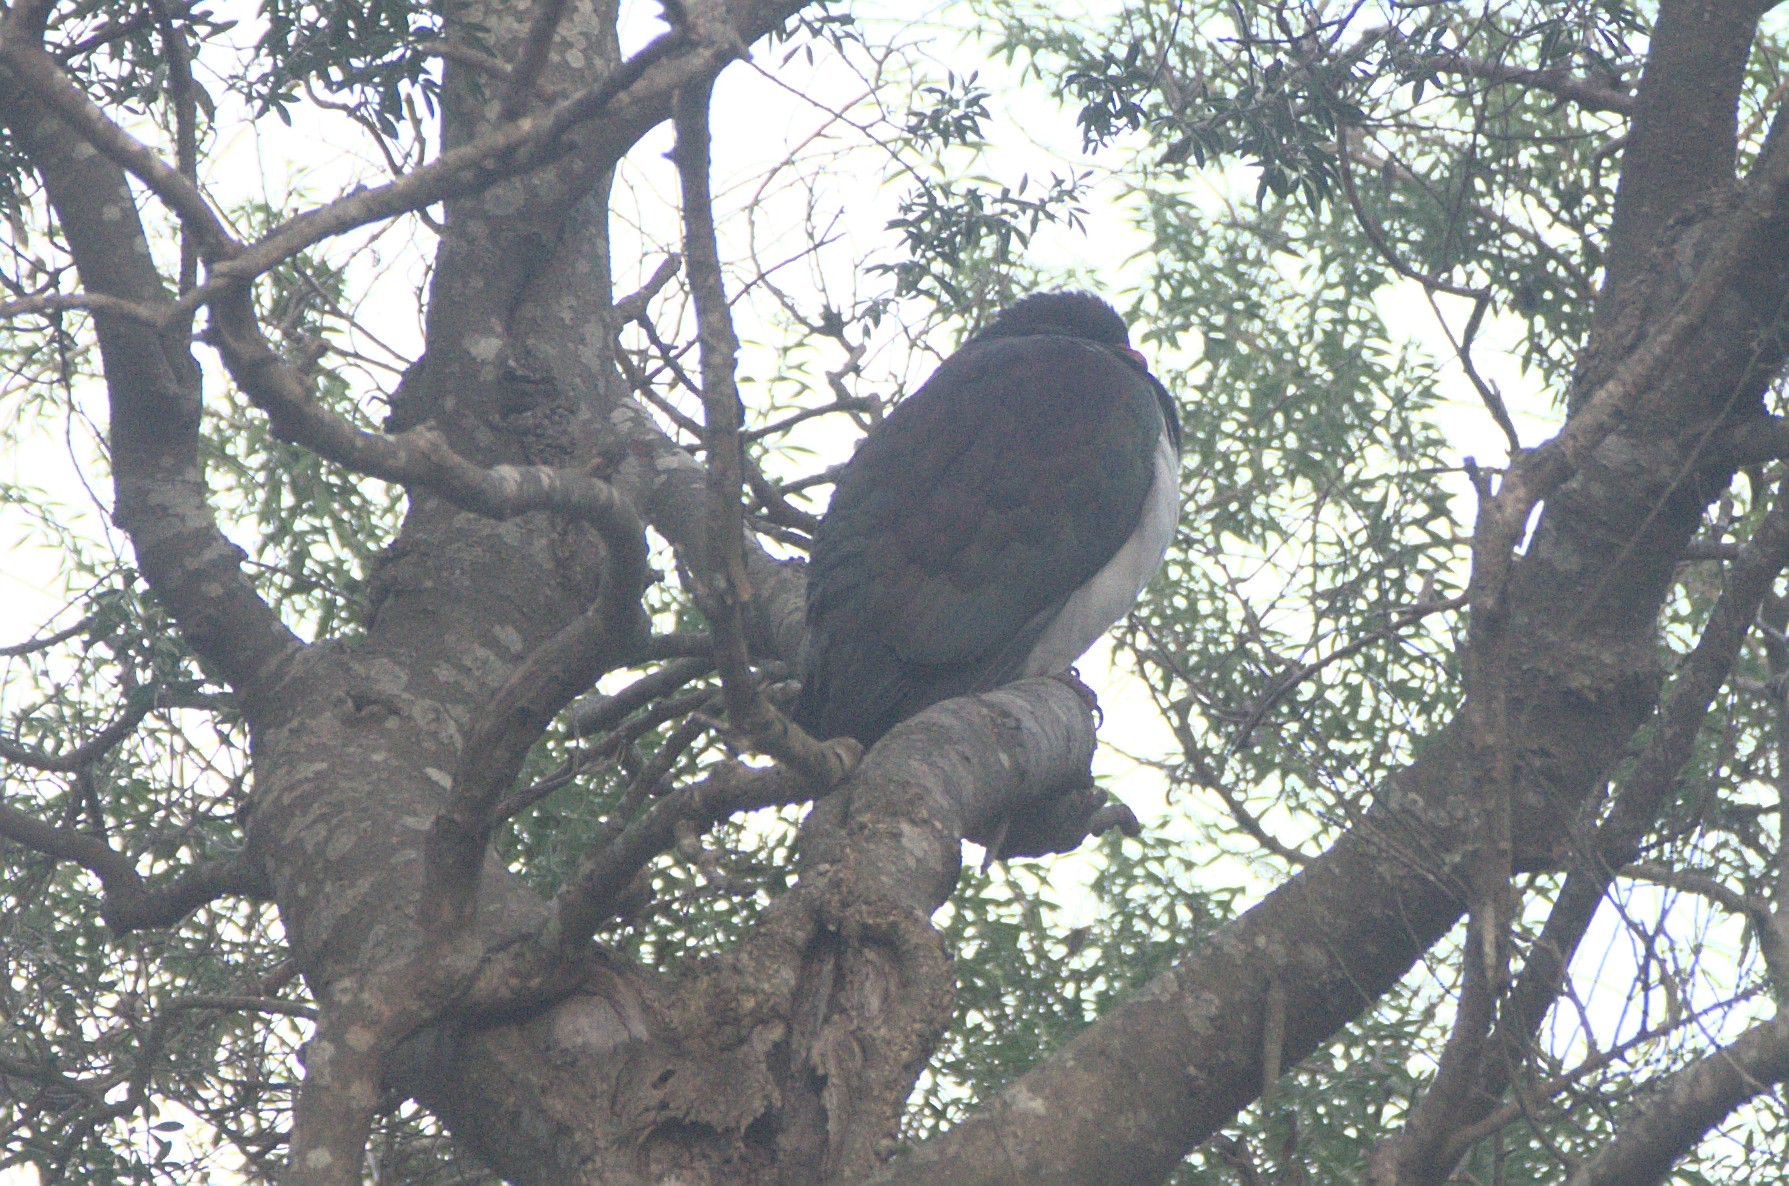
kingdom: Animalia
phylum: Chordata
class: Aves
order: Columbiformes
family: Columbidae
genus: Hemiphaga
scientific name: Hemiphaga novaeseelandiae
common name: New zealand pigeon
